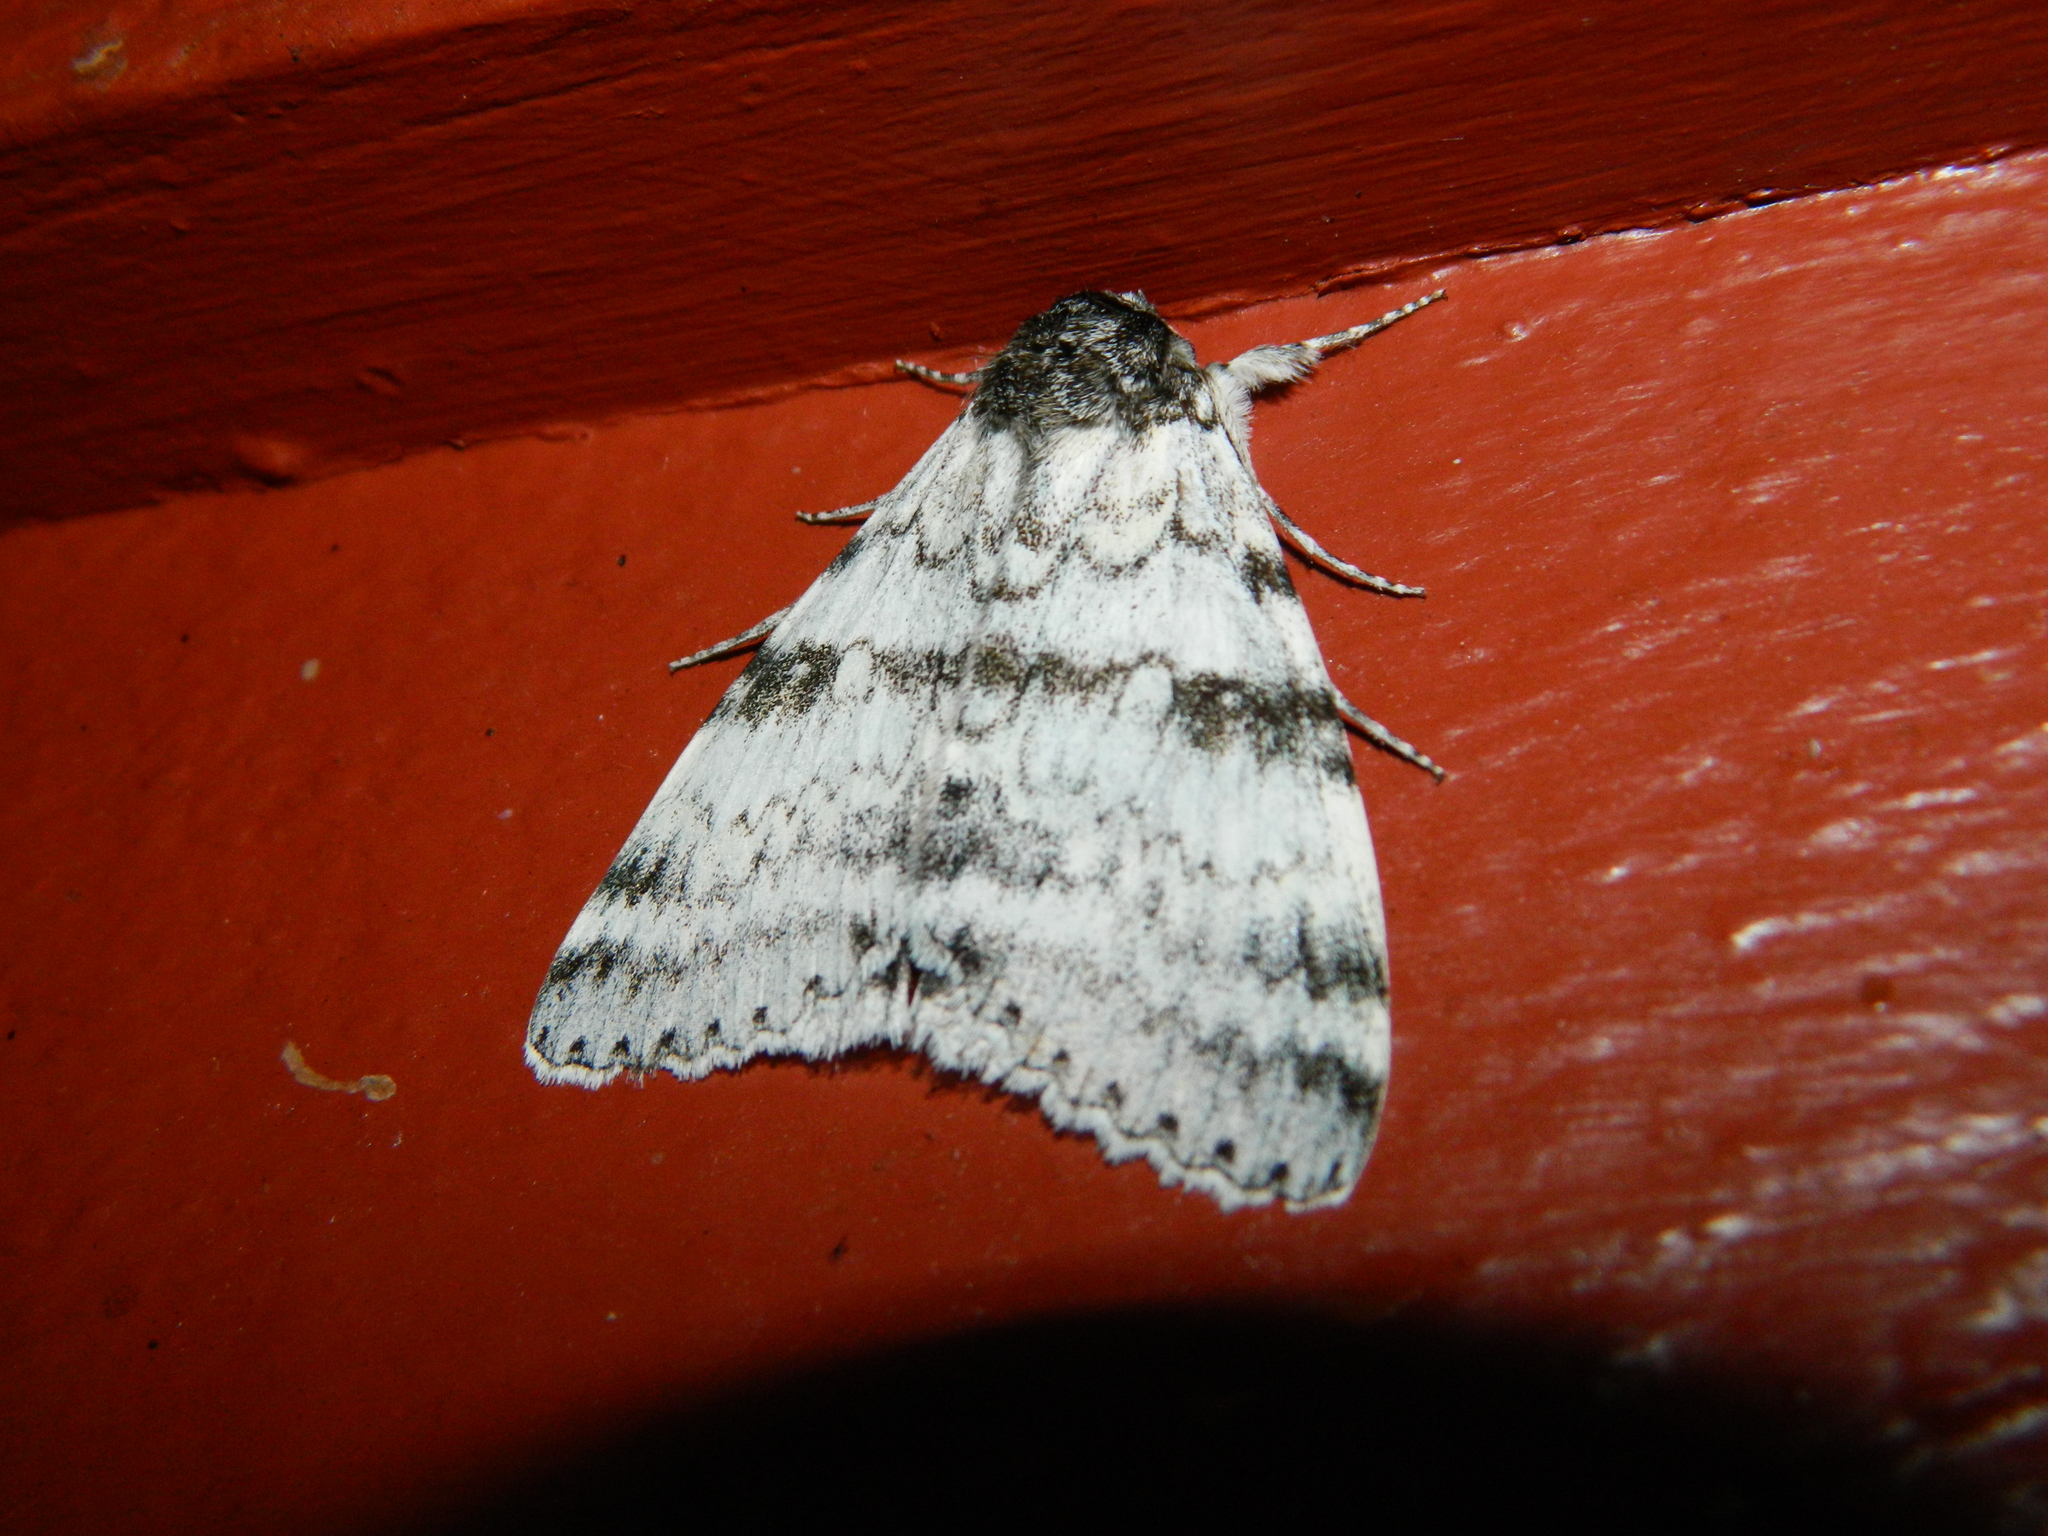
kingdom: Animalia
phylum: Arthropoda
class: Insecta
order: Lepidoptera
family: Erebidae
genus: Catocala
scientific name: Catocala relicta
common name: White underwing
